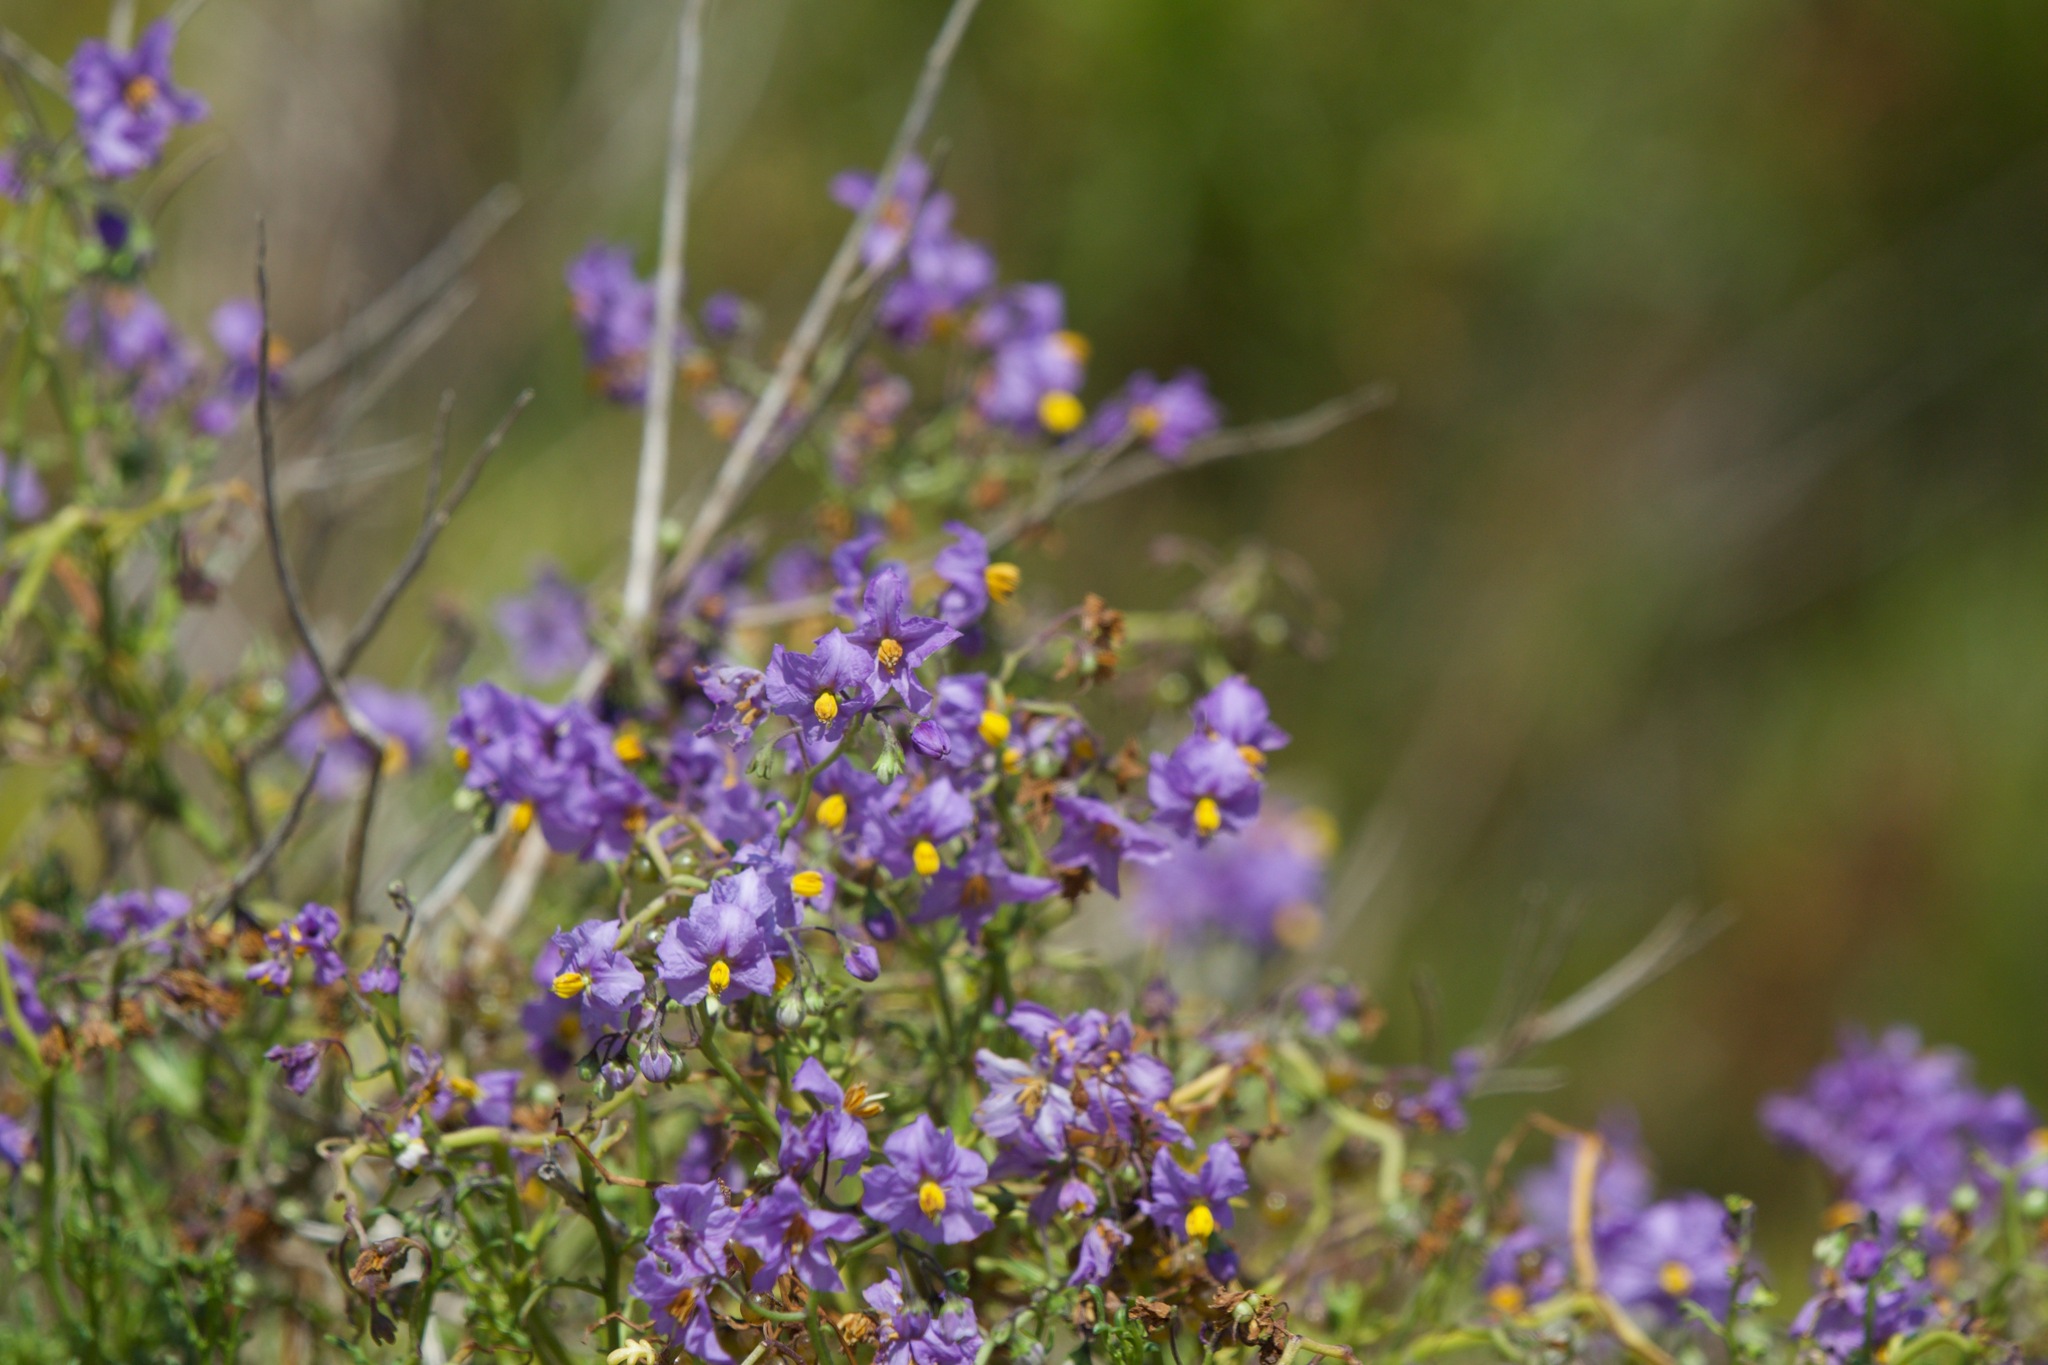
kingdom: Plantae
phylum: Tracheophyta
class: Magnoliopsida
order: Solanales
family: Solanaceae
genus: Solanum
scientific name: Solanum pinnatum
